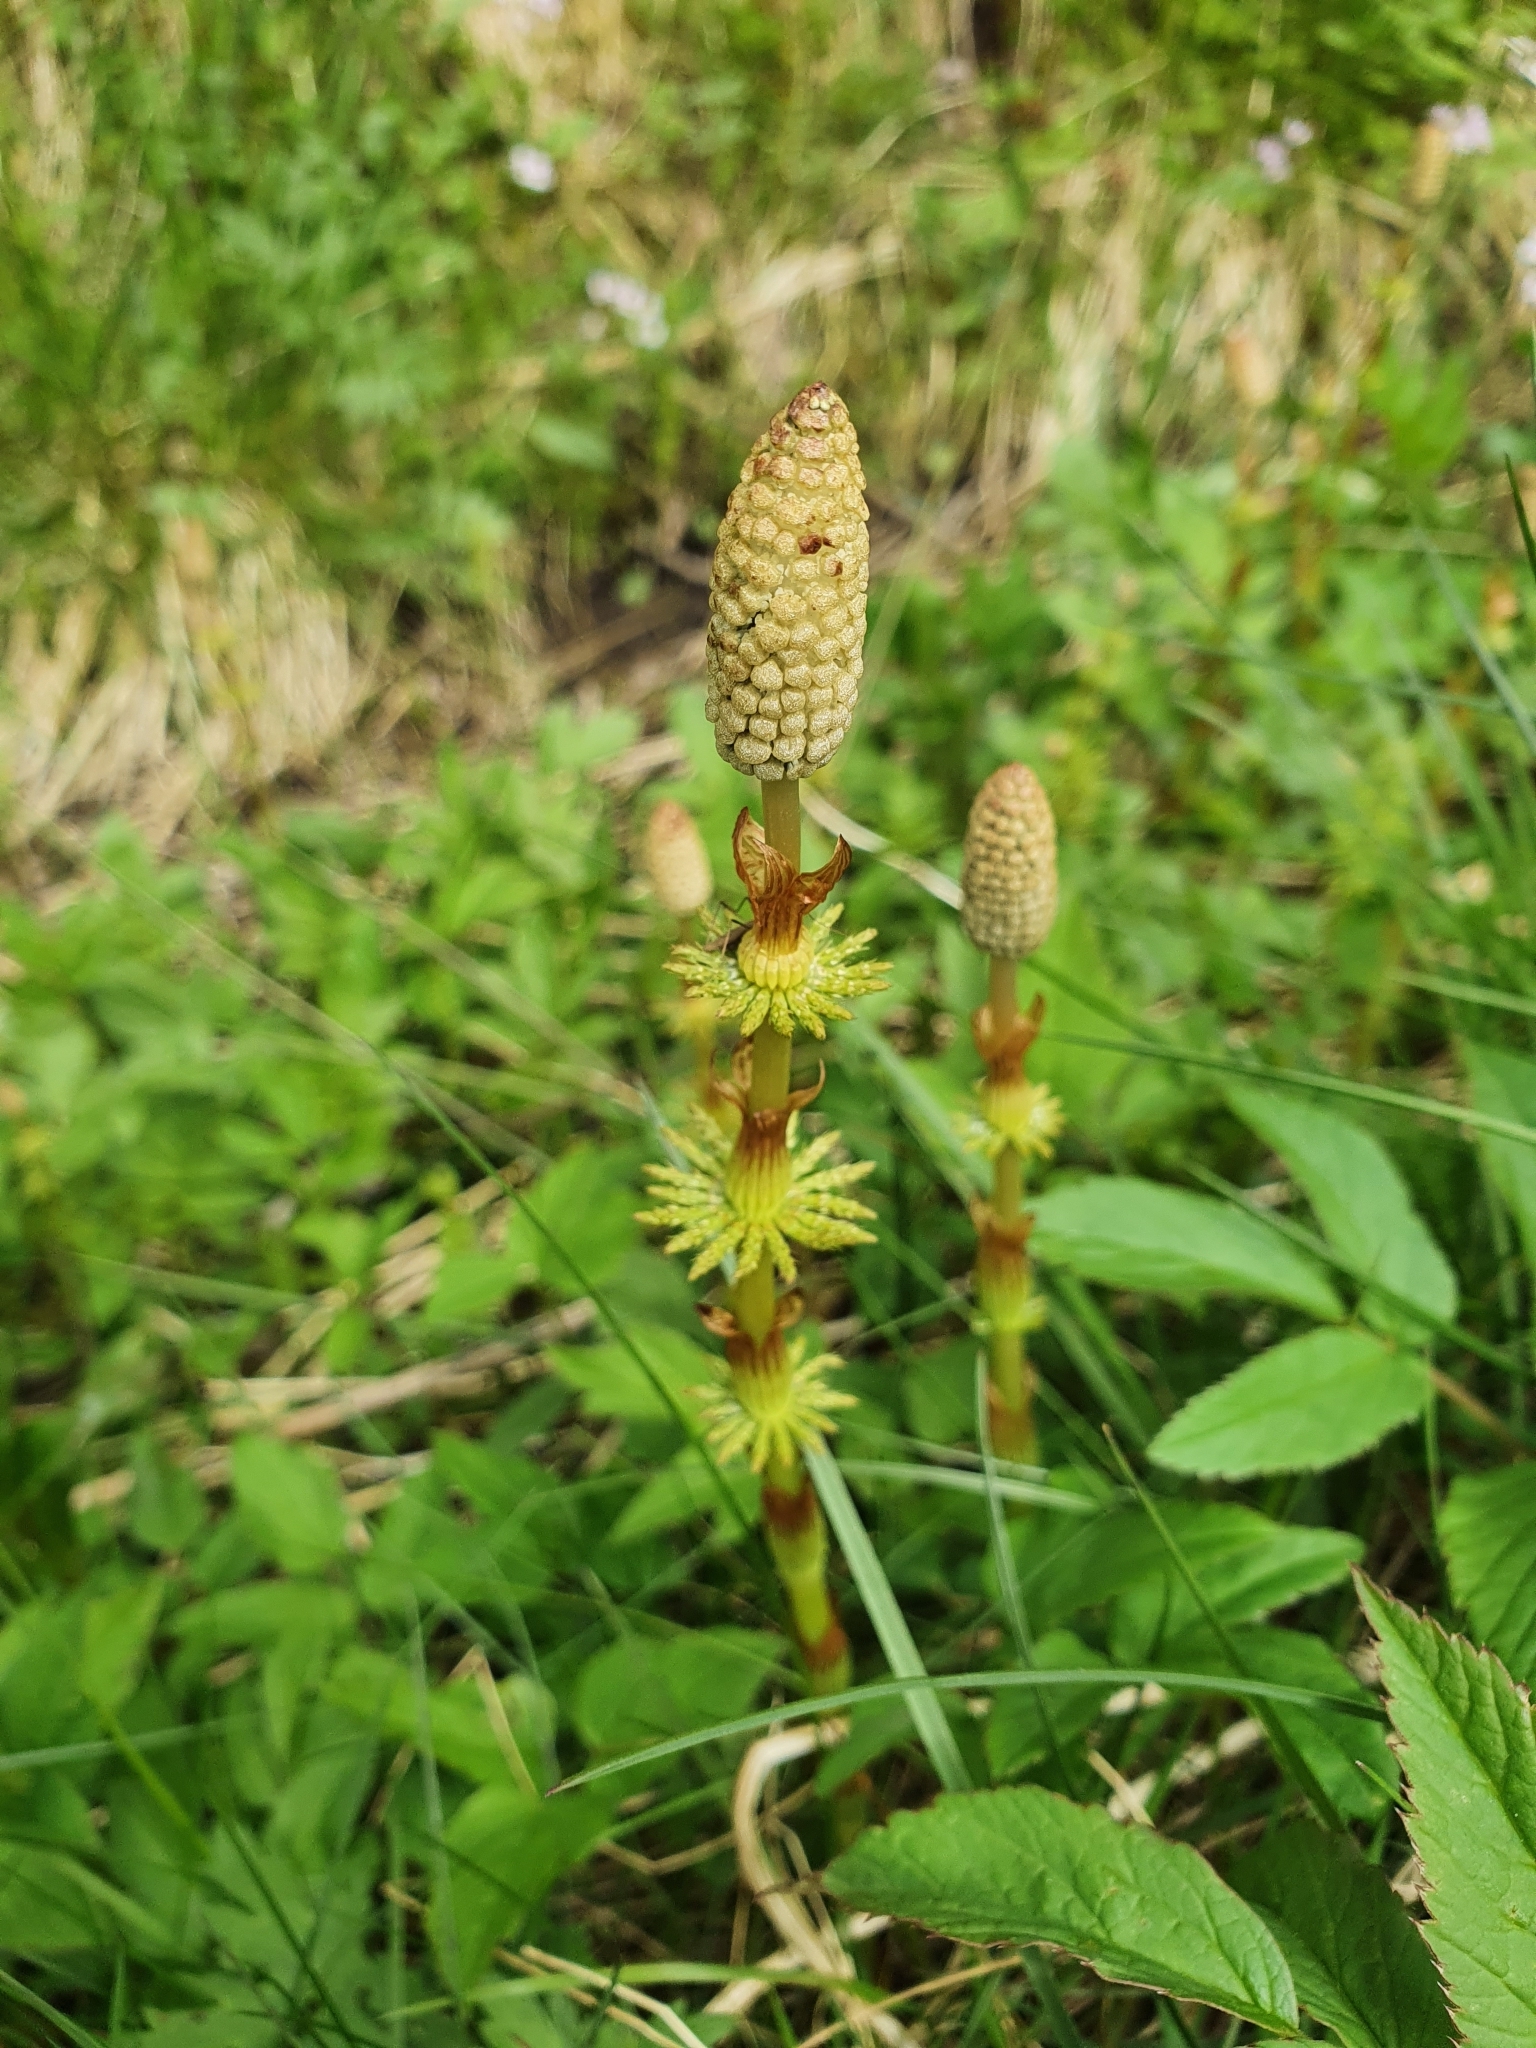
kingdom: Plantae
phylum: Tracheophyta
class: Polypodiopsida
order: Equisetales
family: Equisetaceae
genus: Equisetum
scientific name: Equisetum sylvaticum
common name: Wood horsetail
